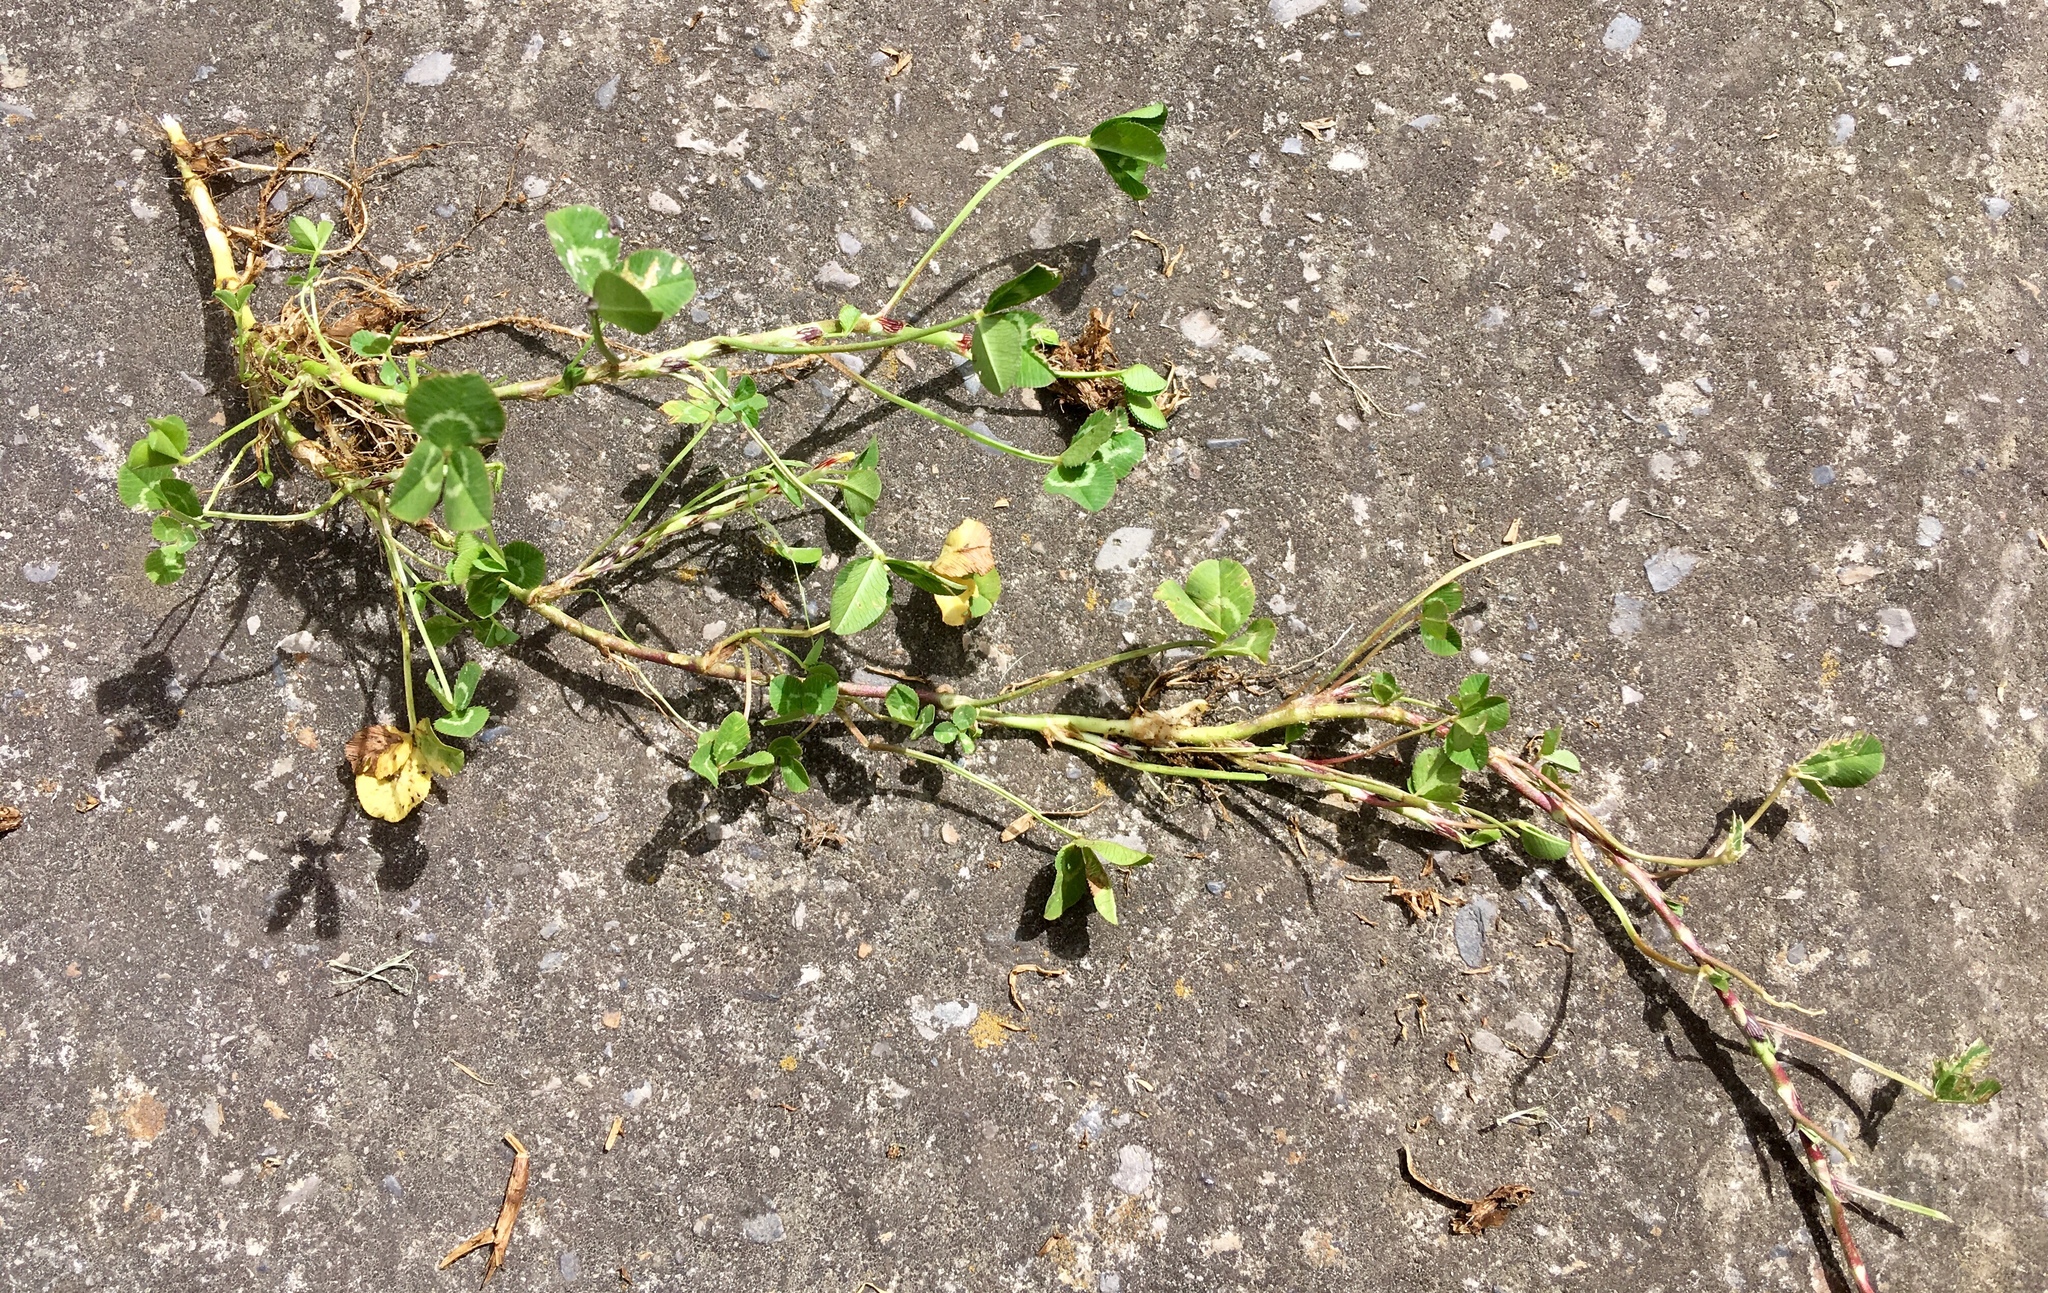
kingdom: Plantae
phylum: Tracheophyta
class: Magnoliopsida
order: Fabales
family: Fabaceae
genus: Trifolium
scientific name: Trifolium repens
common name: White clover
